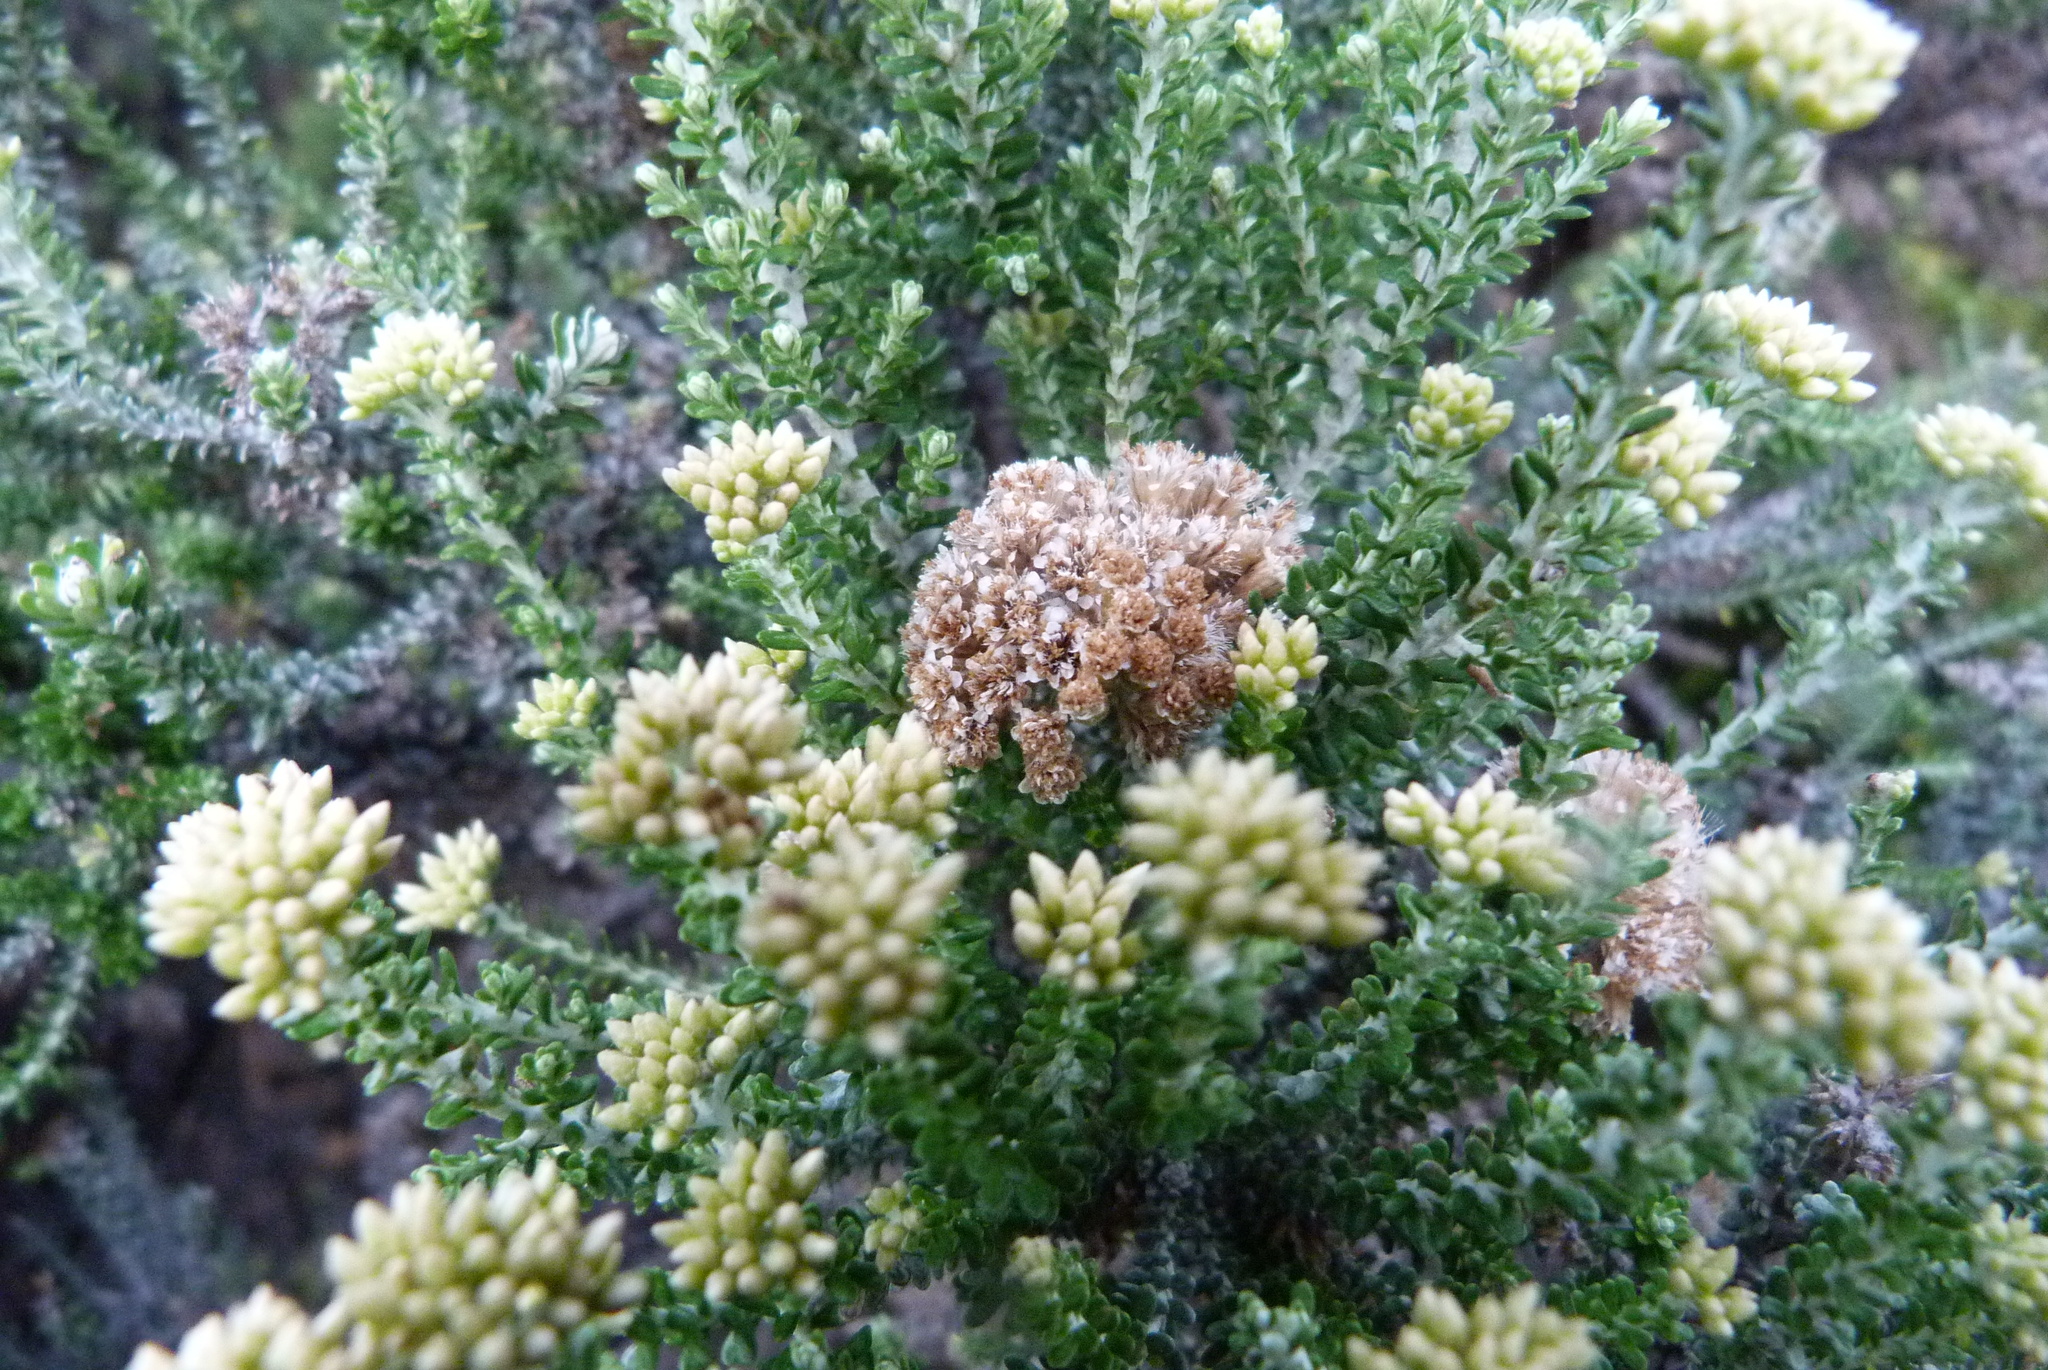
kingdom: Plantae
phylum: Tracheophyta
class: Magnoliopsida
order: Asterales
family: Asteraceae
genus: Ozothamnus
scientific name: Ozothamnus leptophyllus
